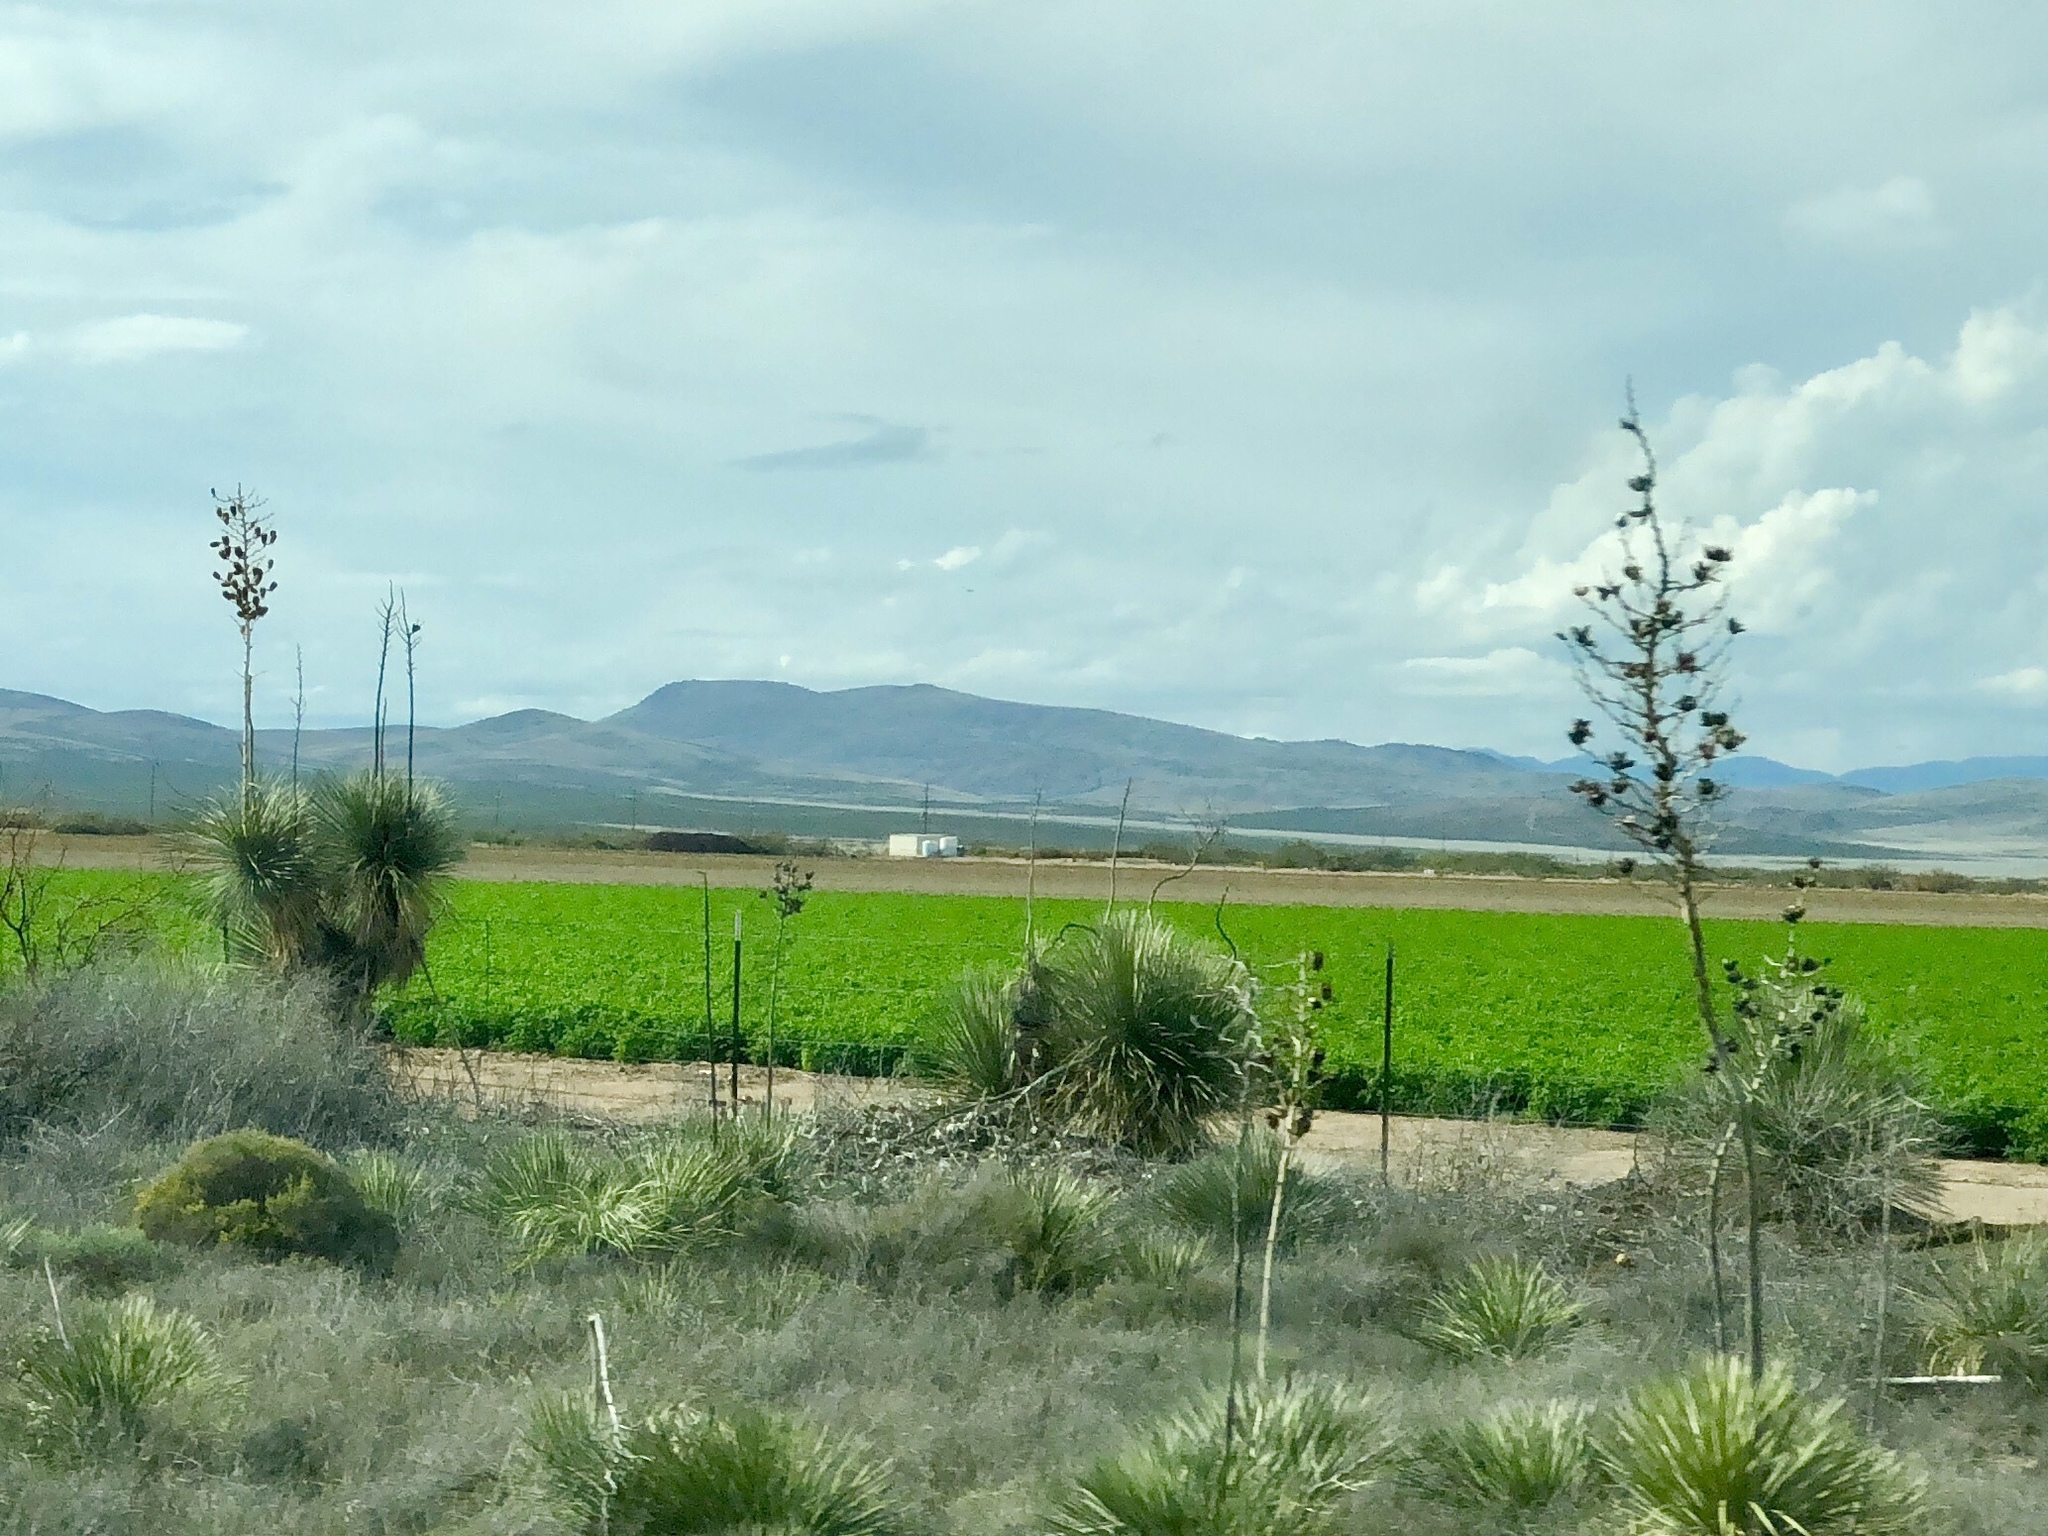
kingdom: Plantae
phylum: Tracheophyta
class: Liliopsida
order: Asparagales
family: Asparagaceae
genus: Yucca
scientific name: Yucca elata
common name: Palmella
